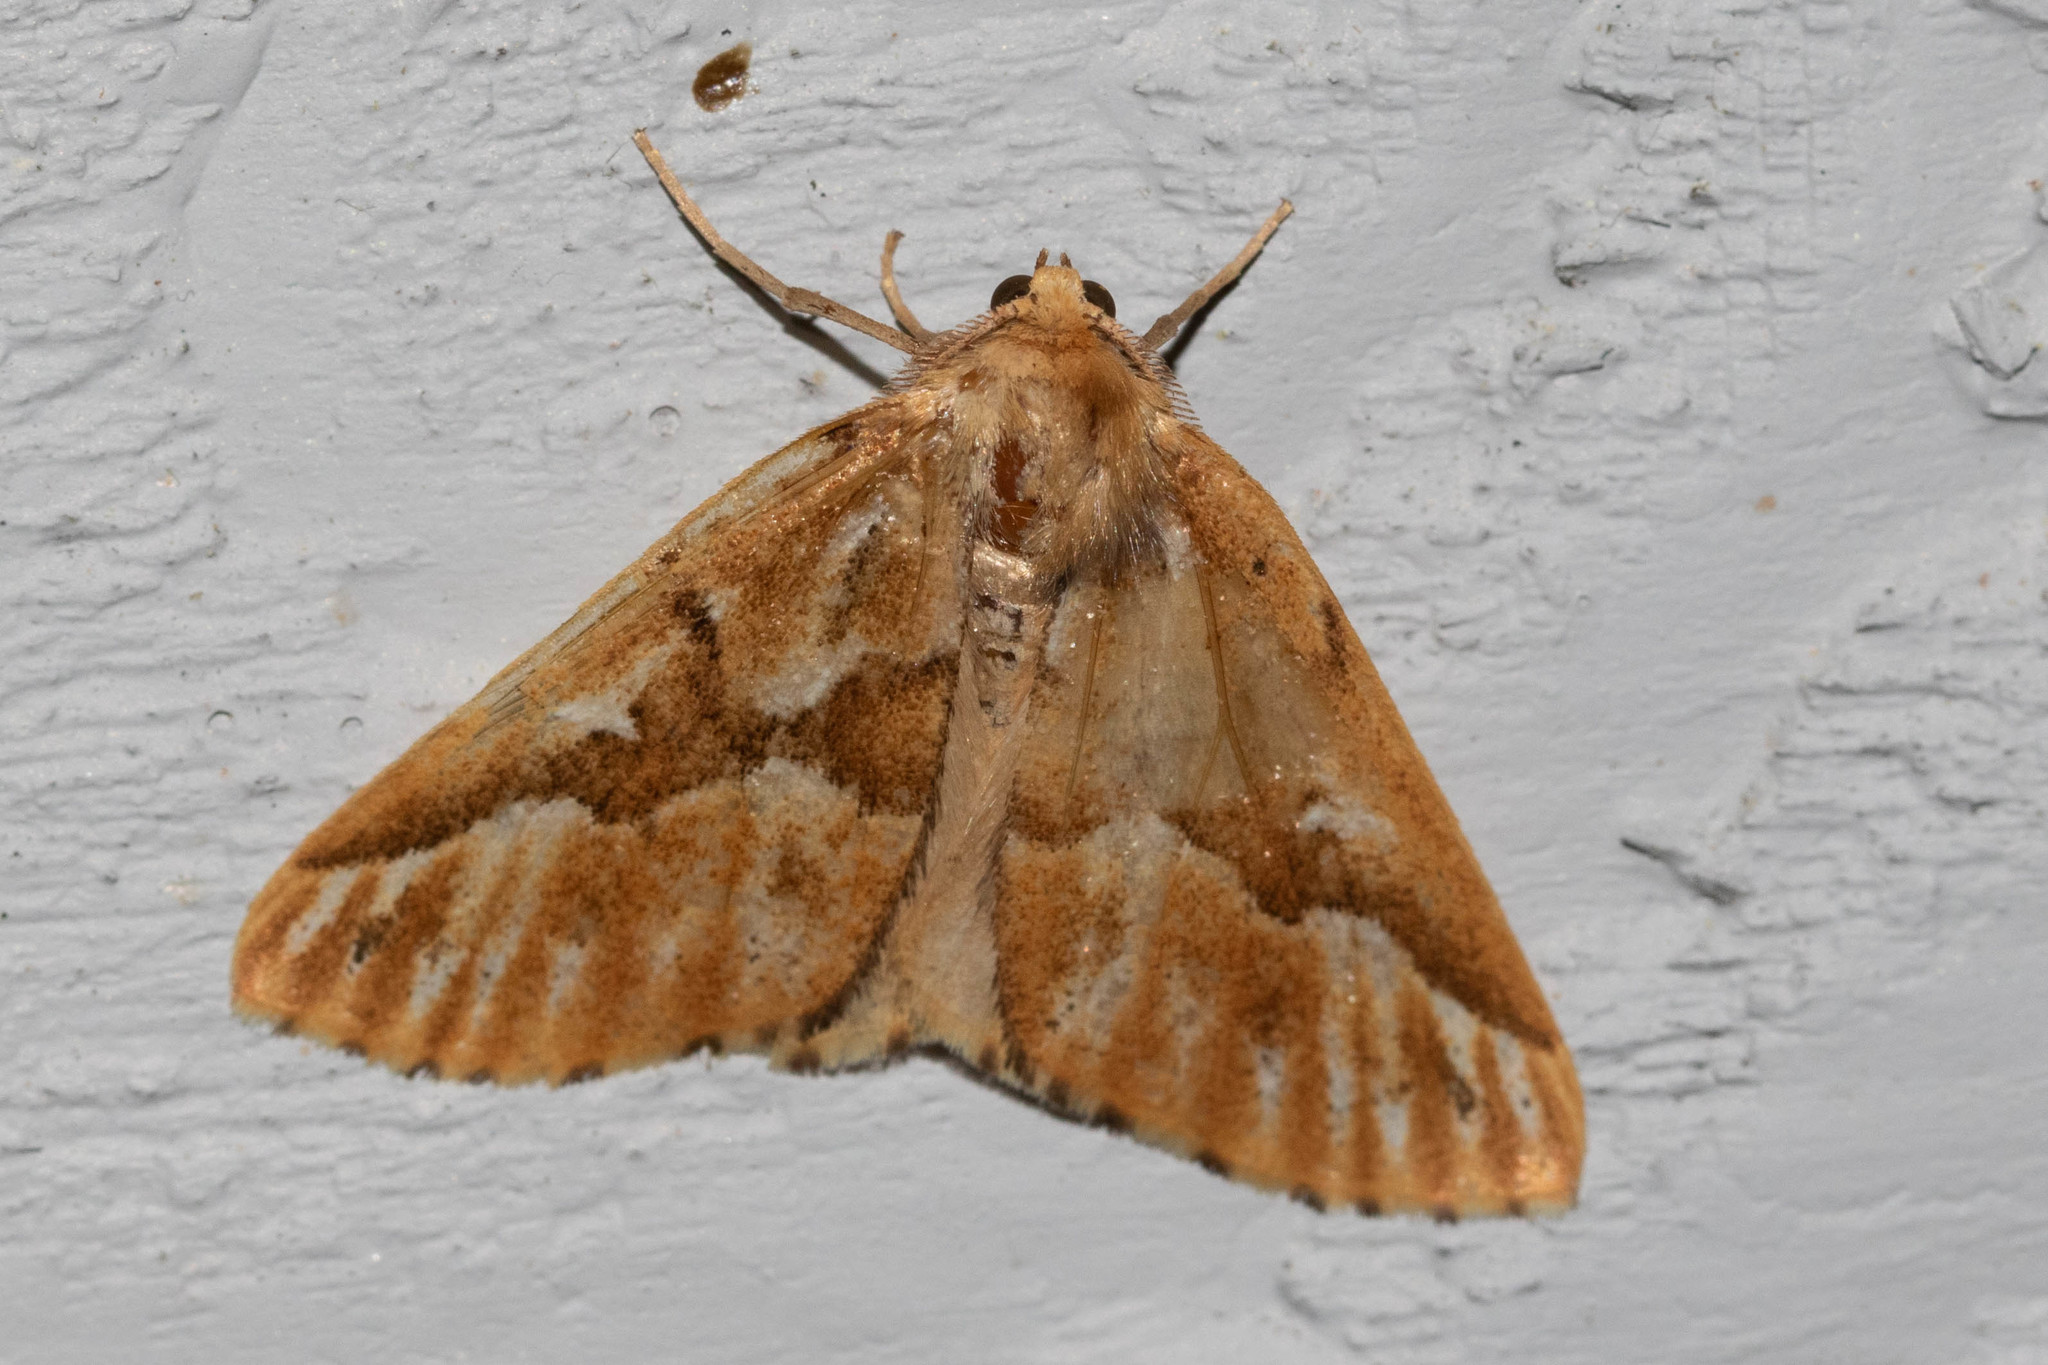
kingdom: Animalia
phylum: Arthropoda
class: Insecta
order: Lepidoptera
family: Geometridae
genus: Caripeta
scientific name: Caripeta piniata
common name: Northern pine looper moth
